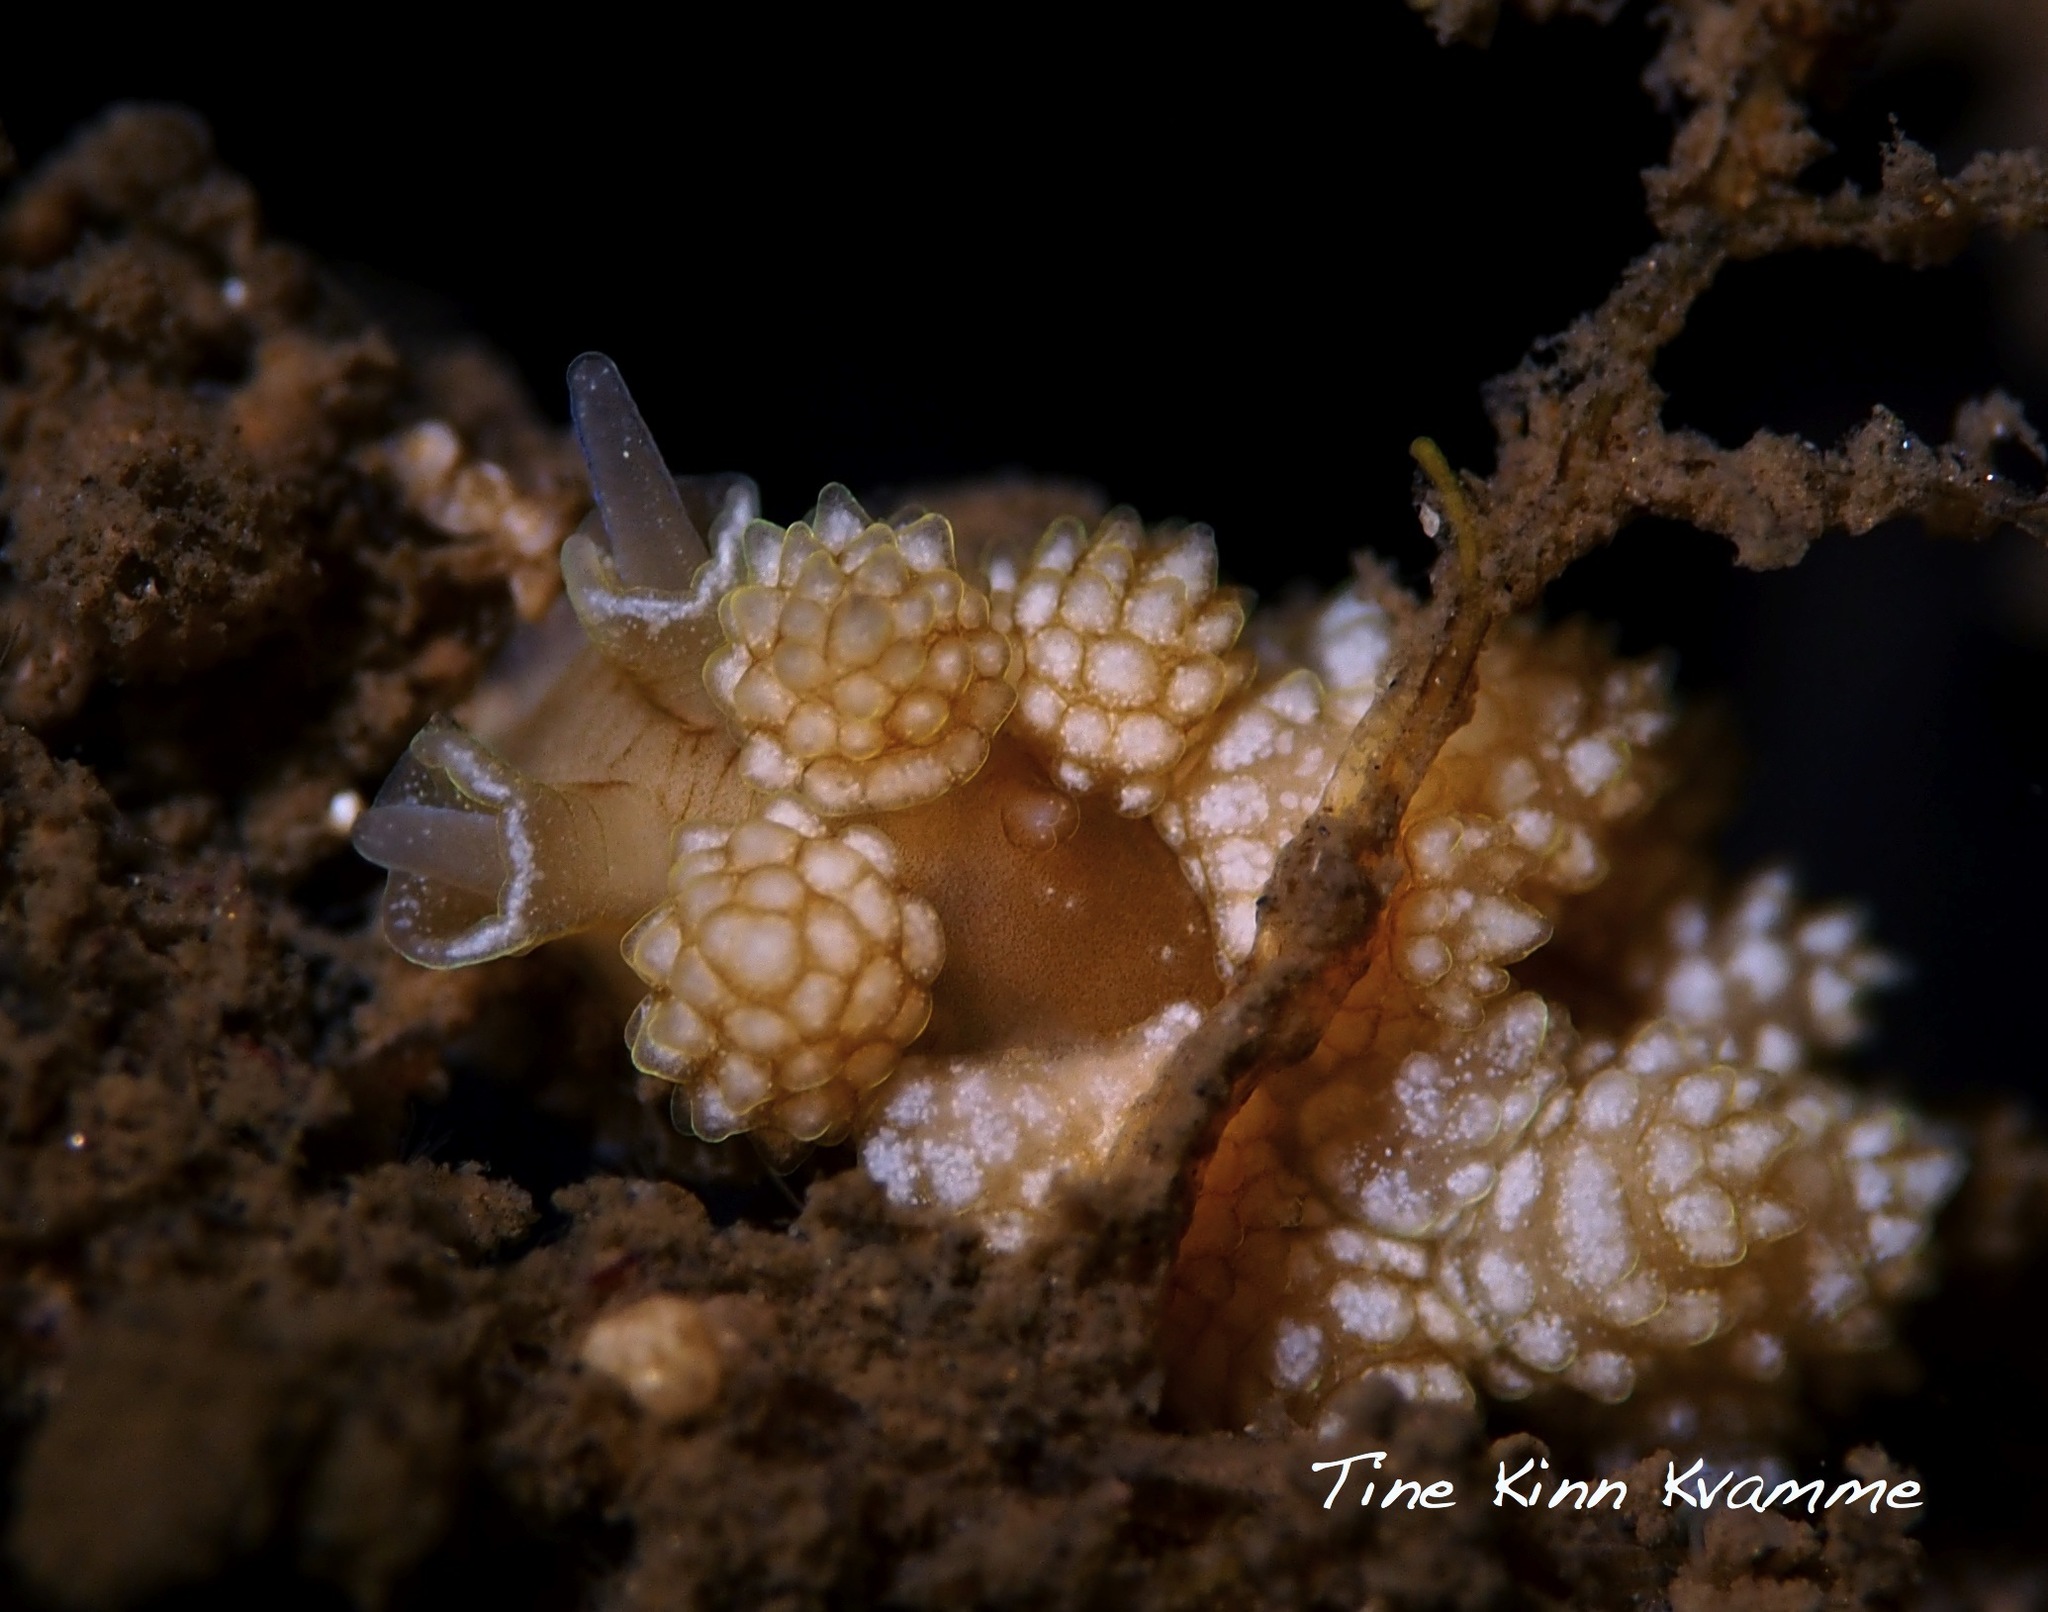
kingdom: Animalia
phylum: Mollusca
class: Gastropoda
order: Nudibranchia
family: Dotidae
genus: Doto
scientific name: Doto fragilis
